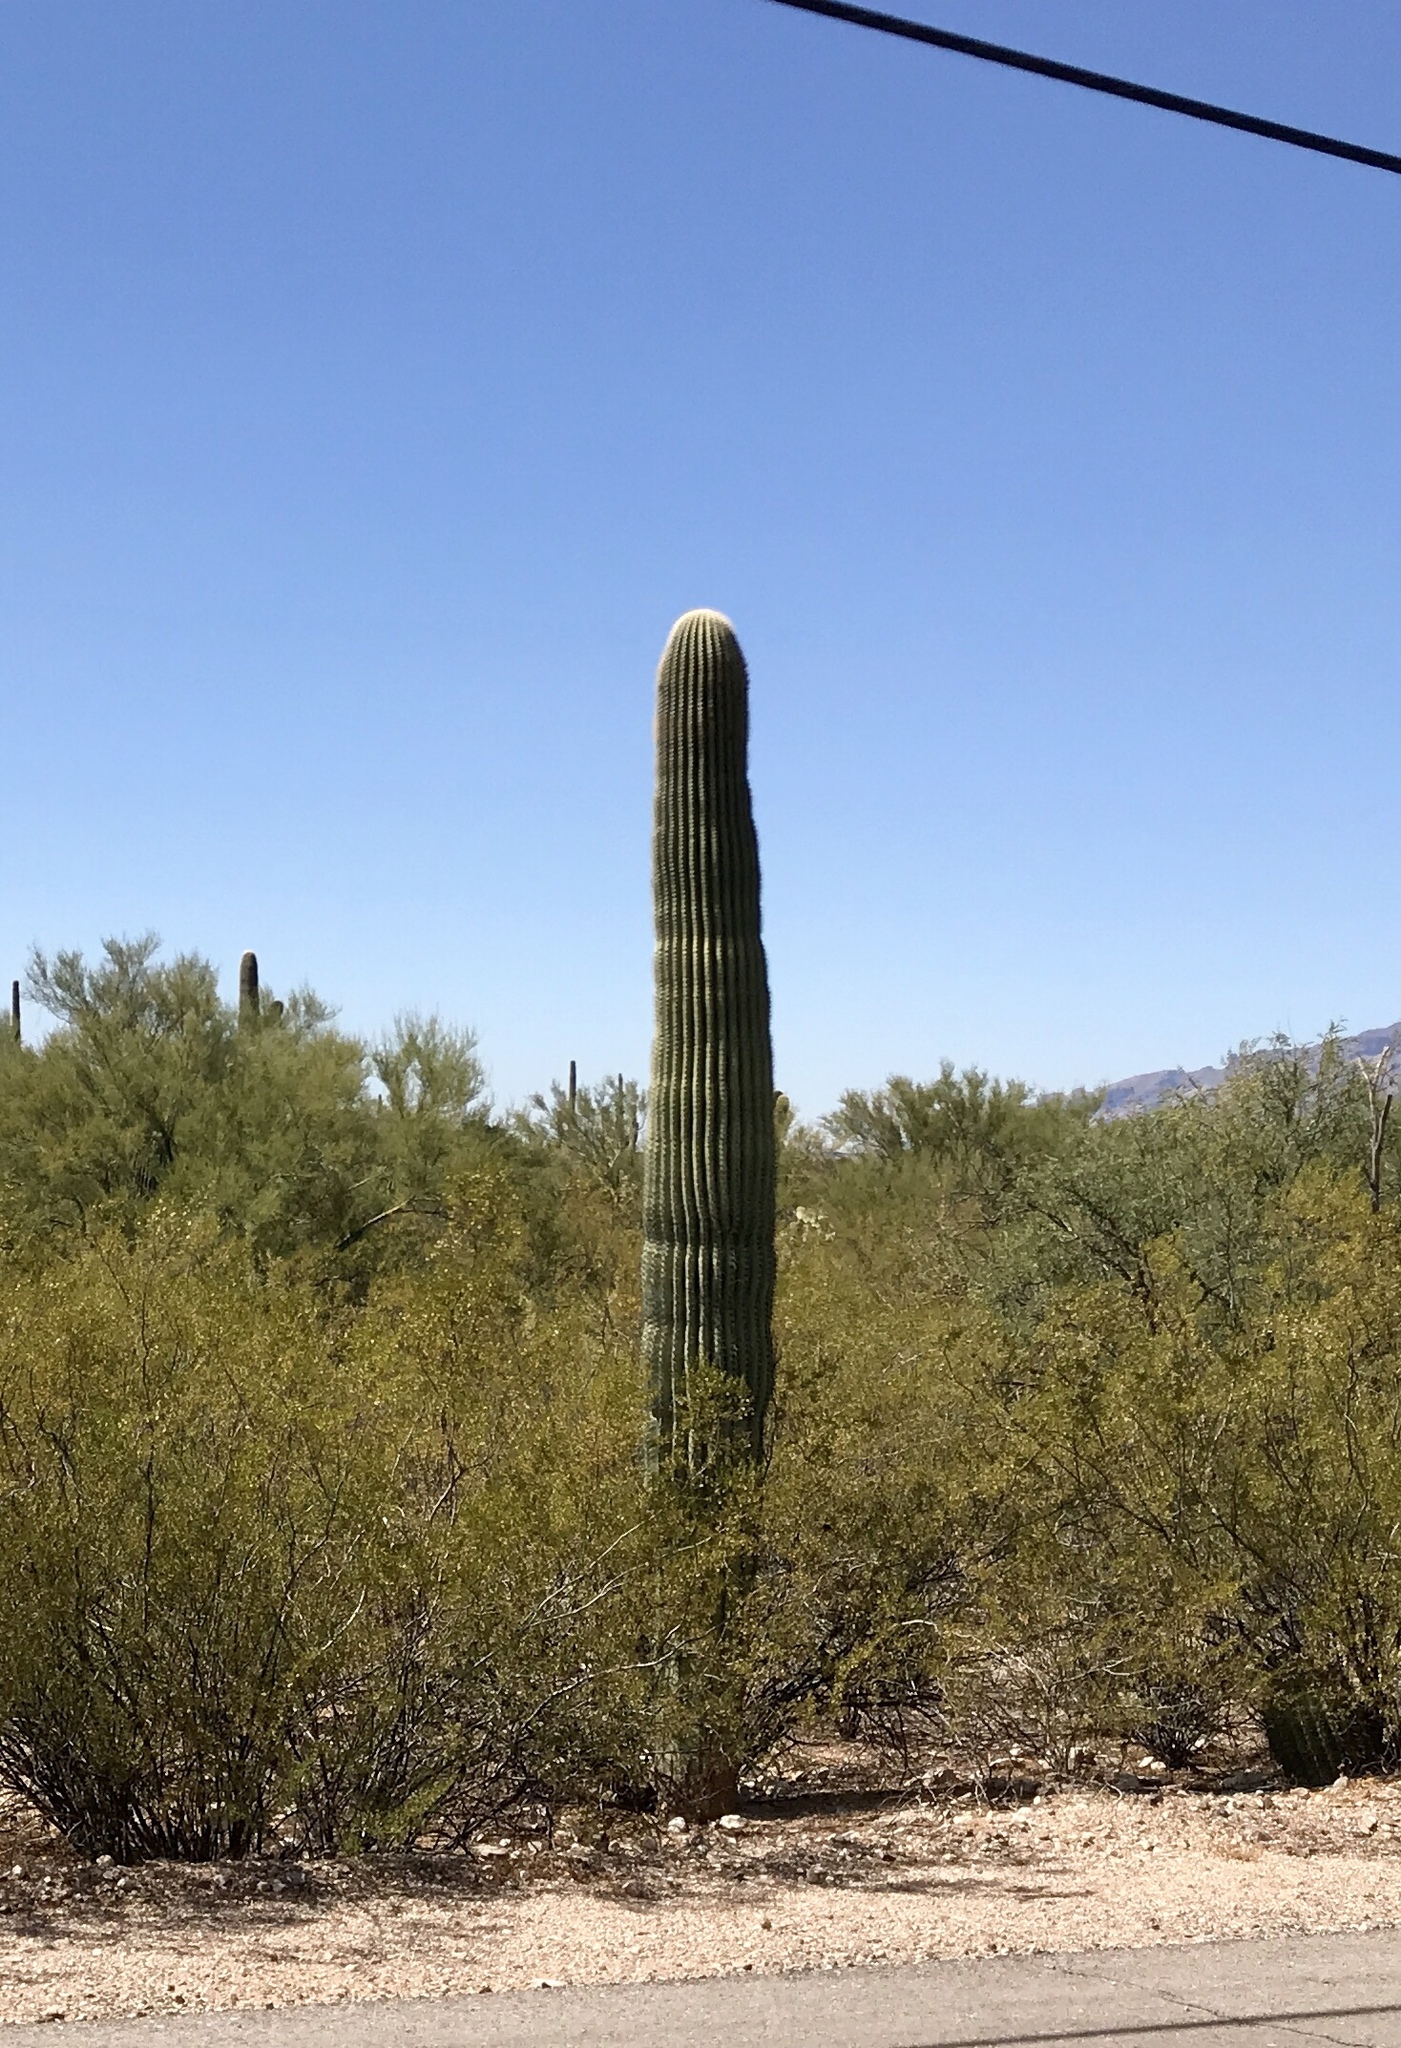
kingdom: Plantae
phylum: Tracheophyta
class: Magnoliopsida
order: Caryophyllales
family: Cactaceae
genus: Carnegiea
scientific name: Carnegiea gigantea
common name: Saguaro
